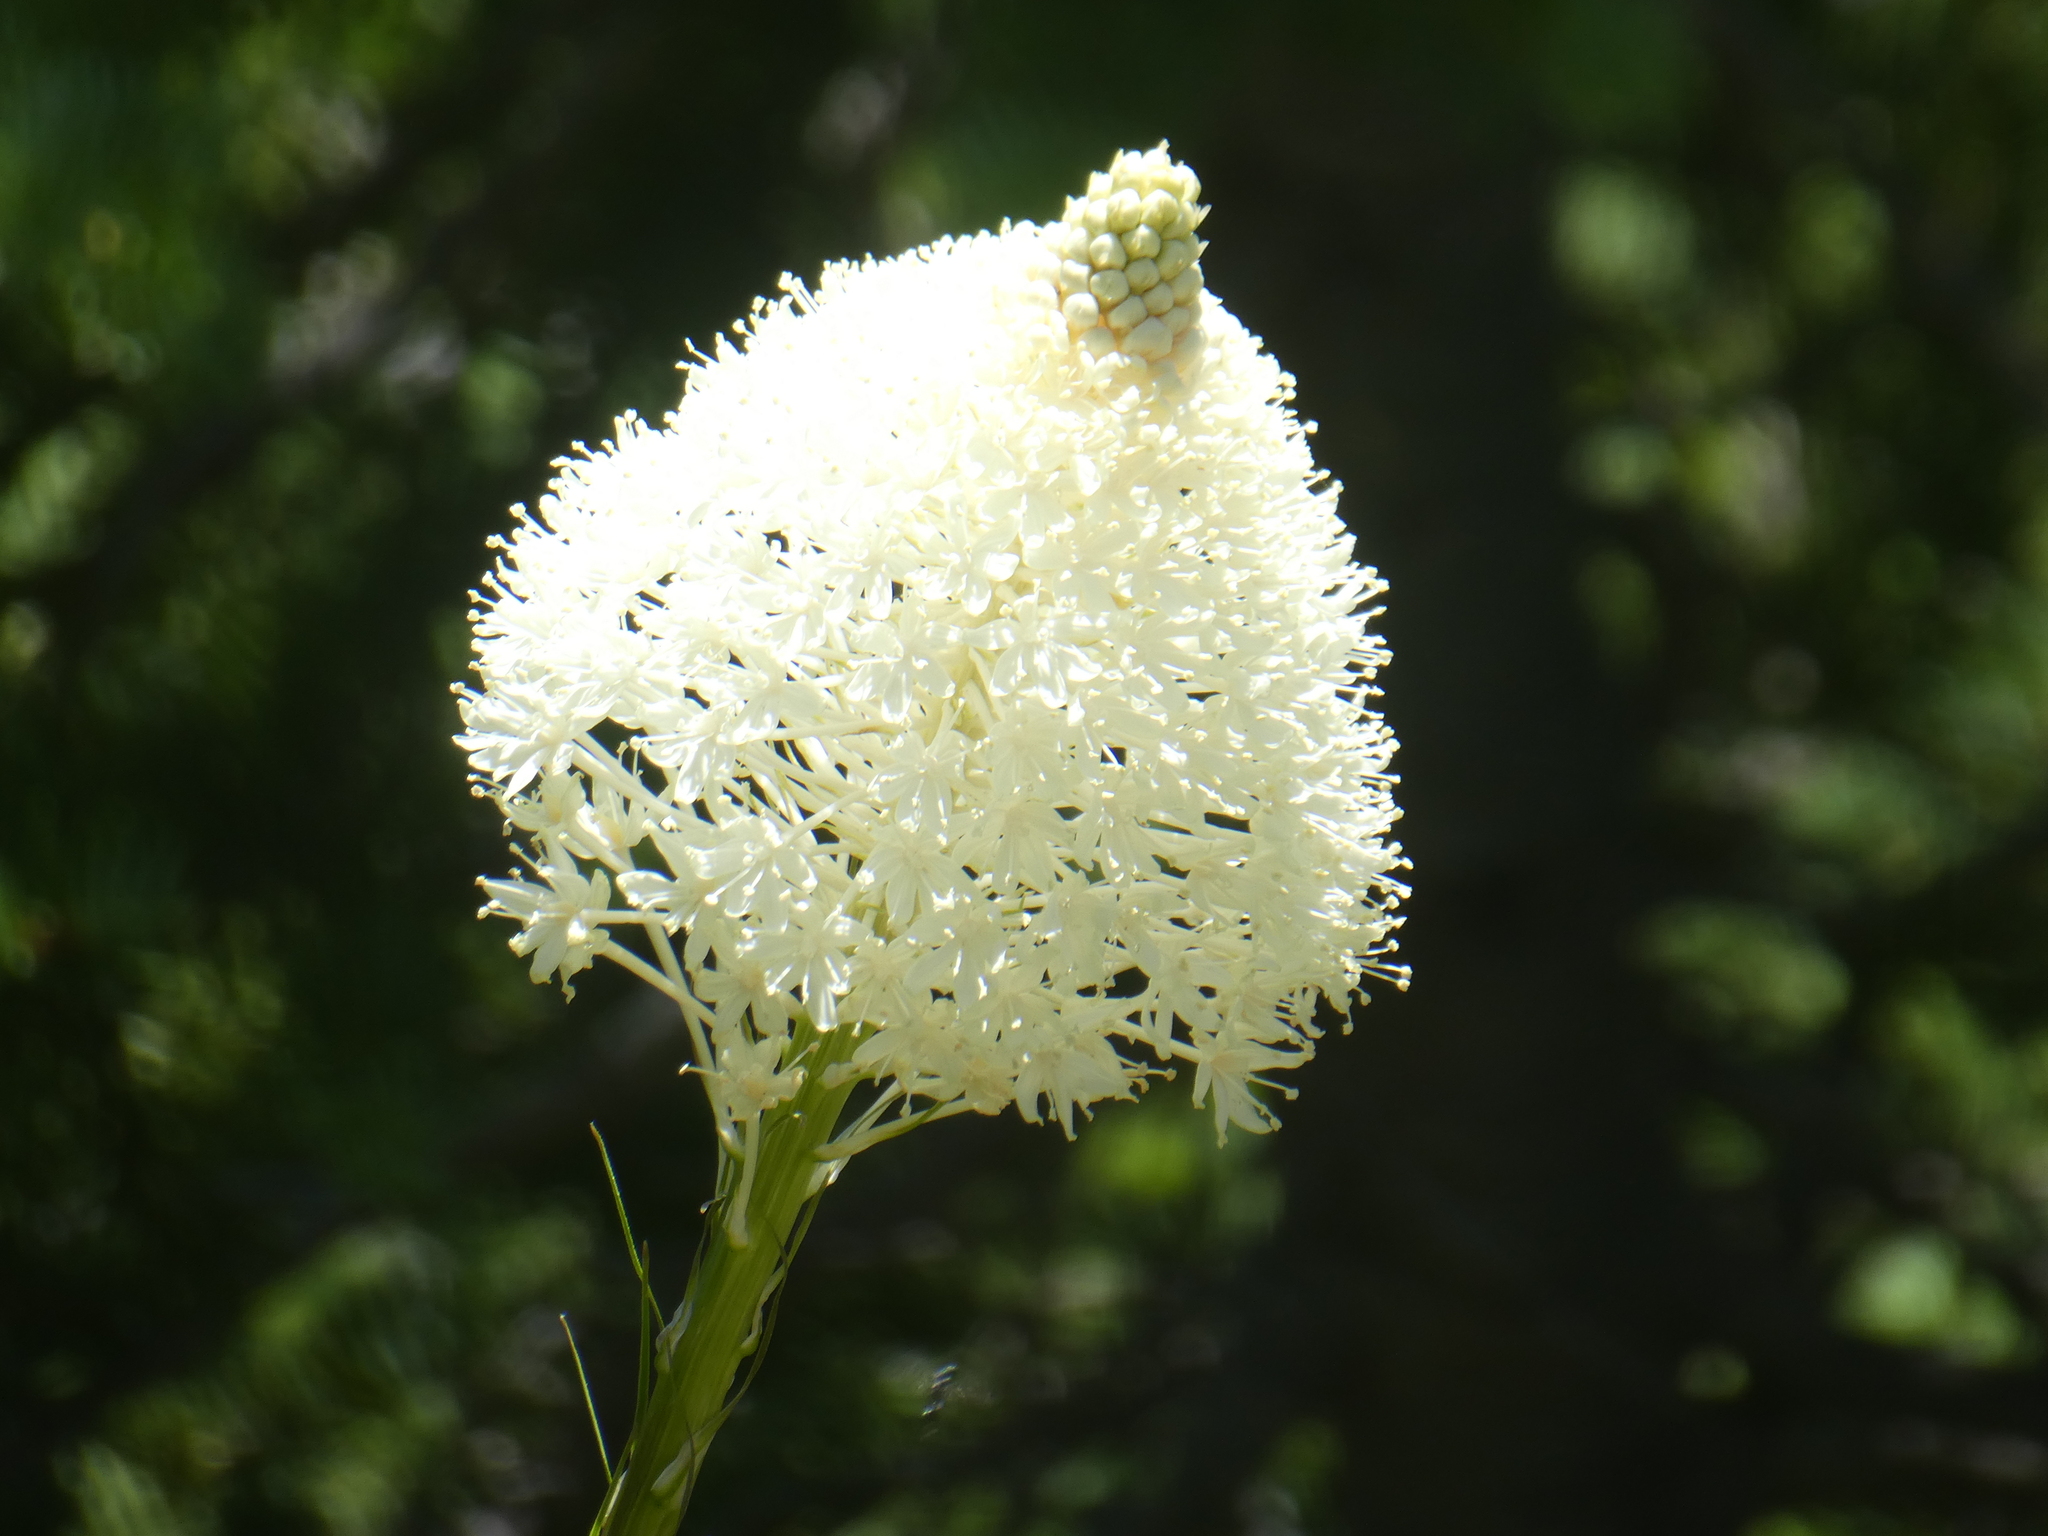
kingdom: Plantae
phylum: Tracheophyta
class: Liliopsida
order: Liliales
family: Melanthiaceae
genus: Xerophyllum
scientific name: Xerophyllum tenax
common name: Bear-grass
